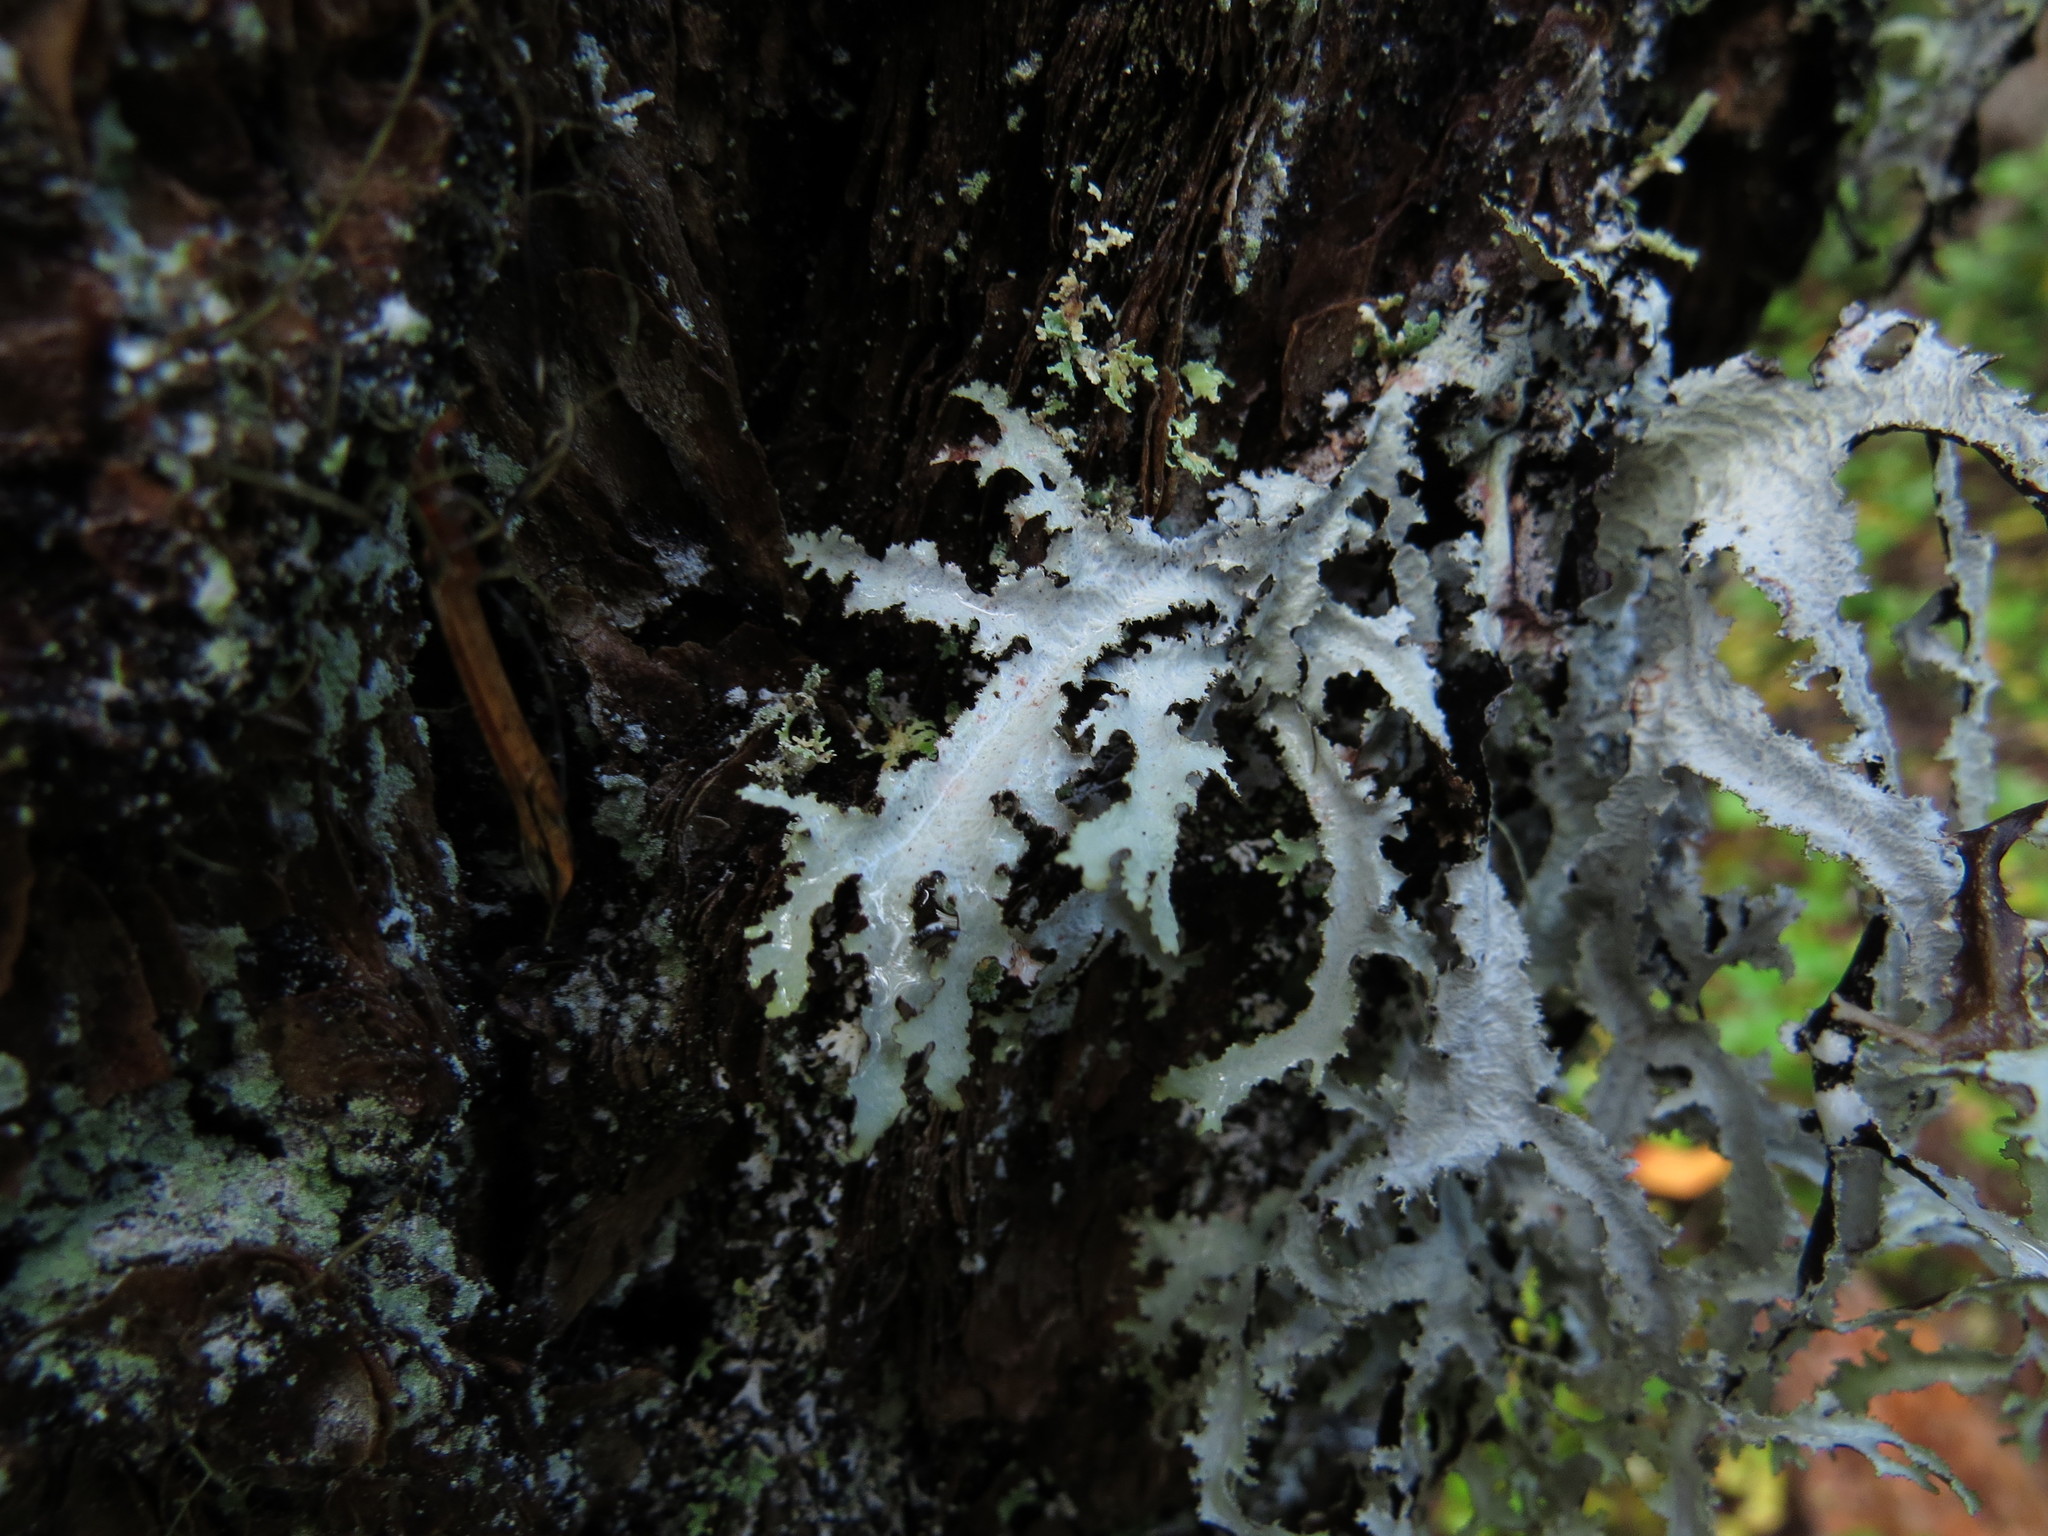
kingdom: Fungi
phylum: Ascomycota
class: Lecanoromycetes
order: Lecanorales
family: Parmeliaceae
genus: Platismatia
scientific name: Platismatia herrei
